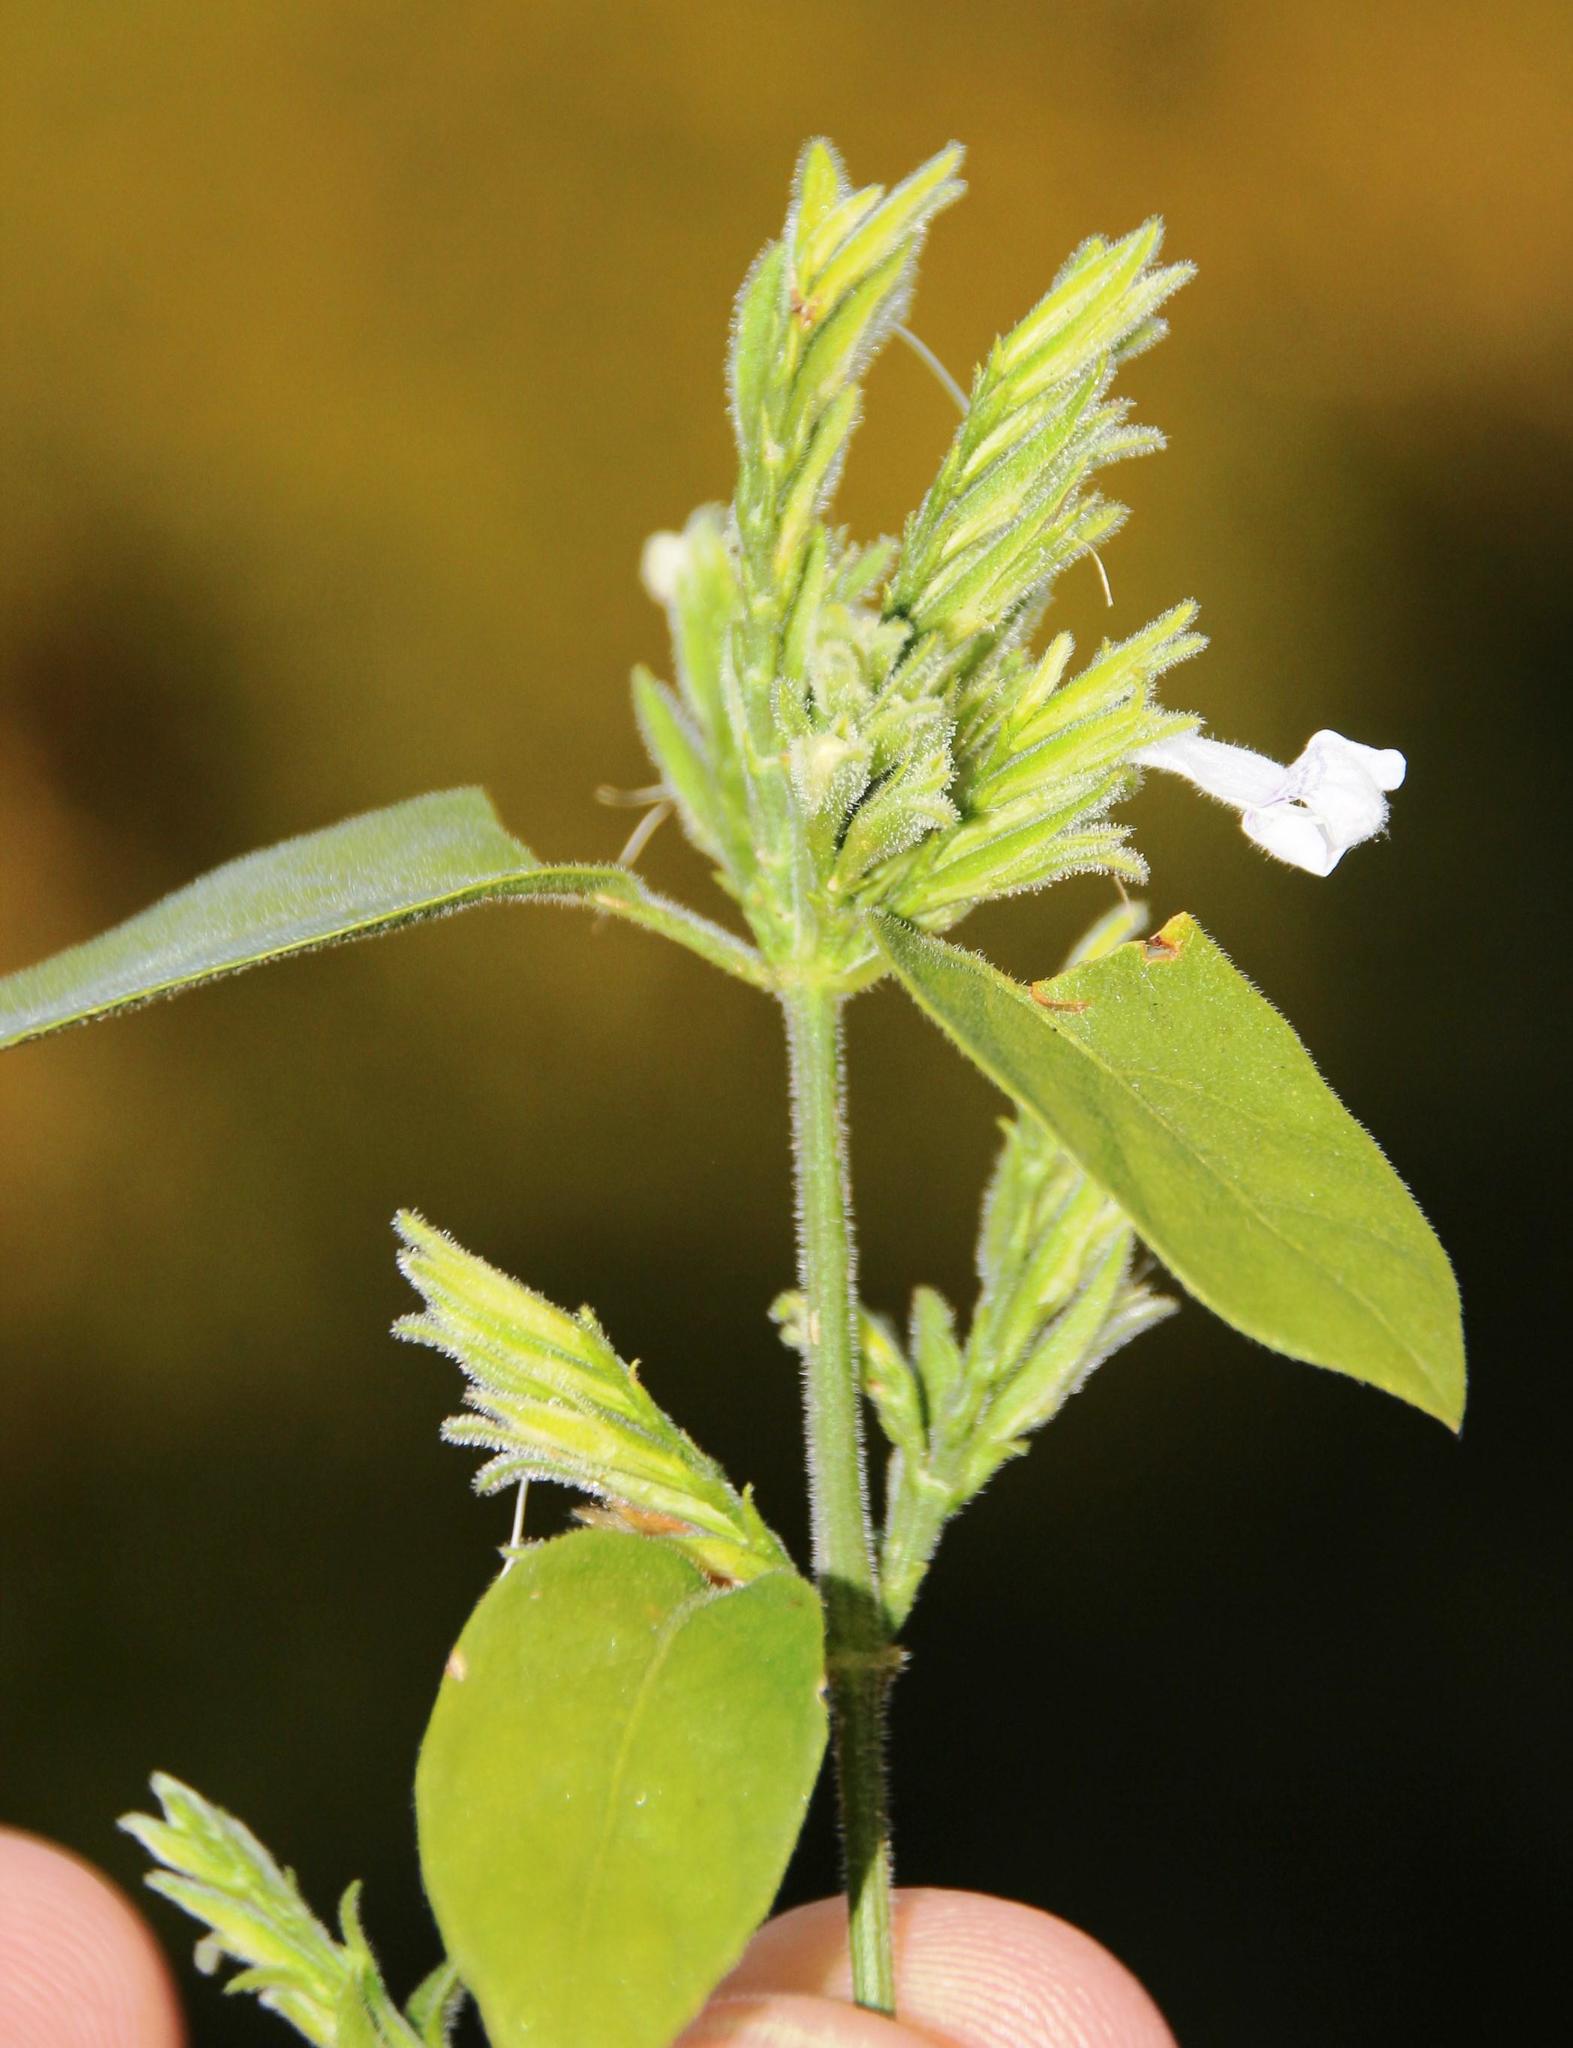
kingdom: Plantae
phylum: Tracheophyta
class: Magnoliopsida
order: Lamiales
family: Acanthaceae
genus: Hypoestes
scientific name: Hypoestes forskaolii
